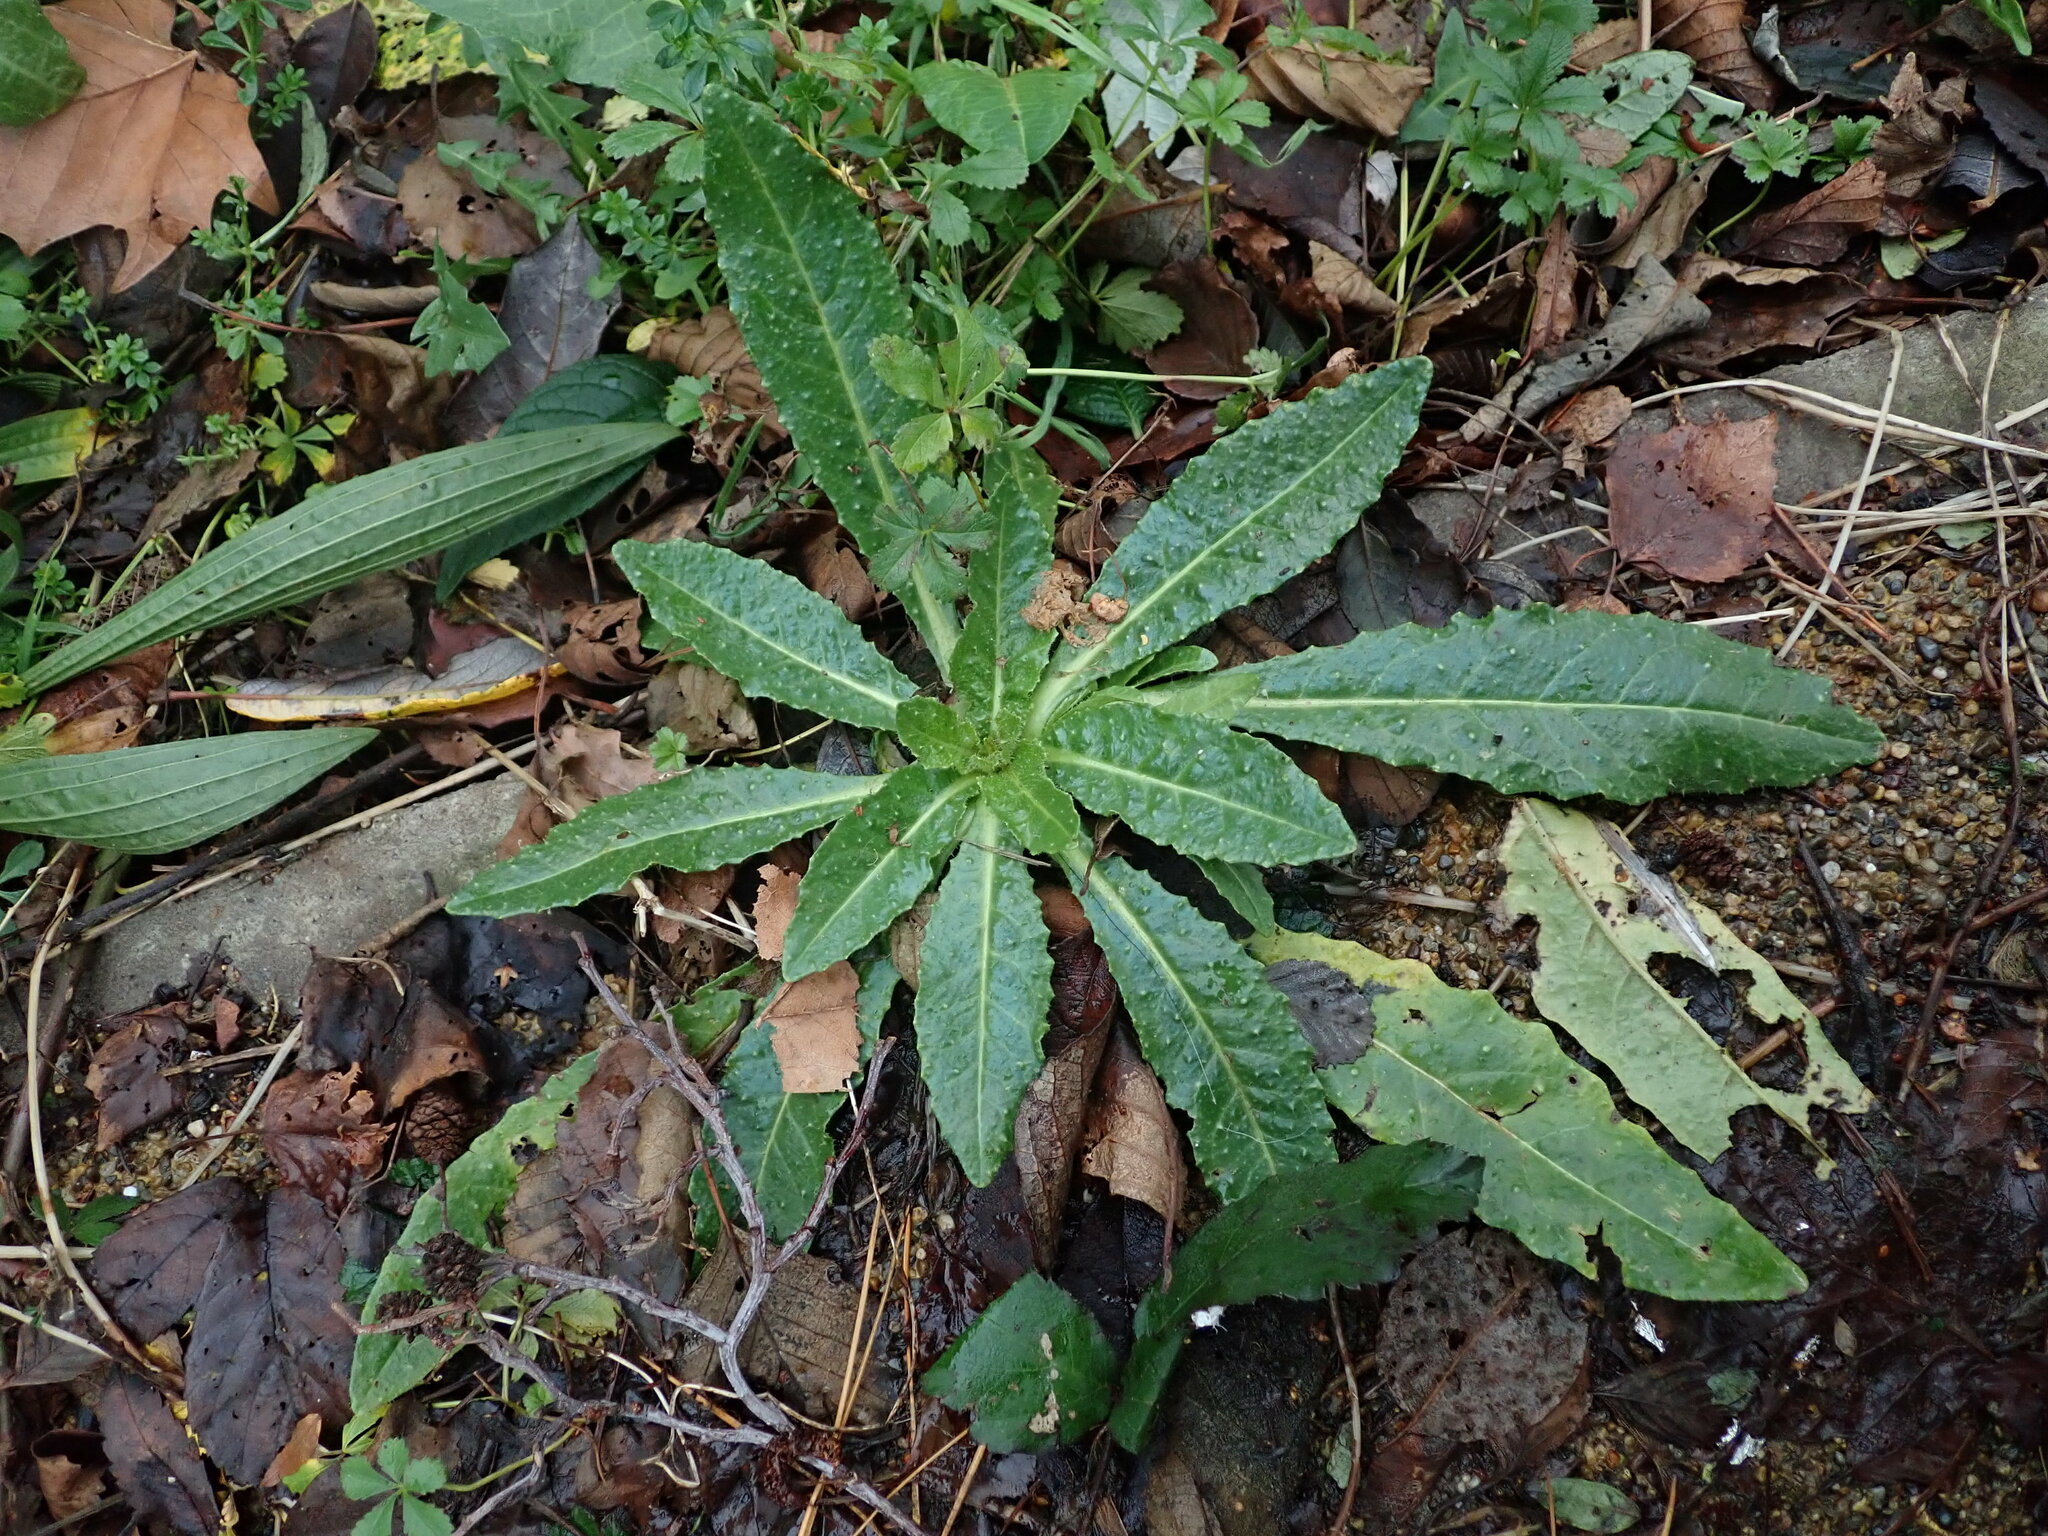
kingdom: Plantae
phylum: Tracheophyta
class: Magnoliopsida
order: Asterales
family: Asteraceae
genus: Helminthotheca
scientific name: Helminthotheca echioides
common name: Ox-tongue
